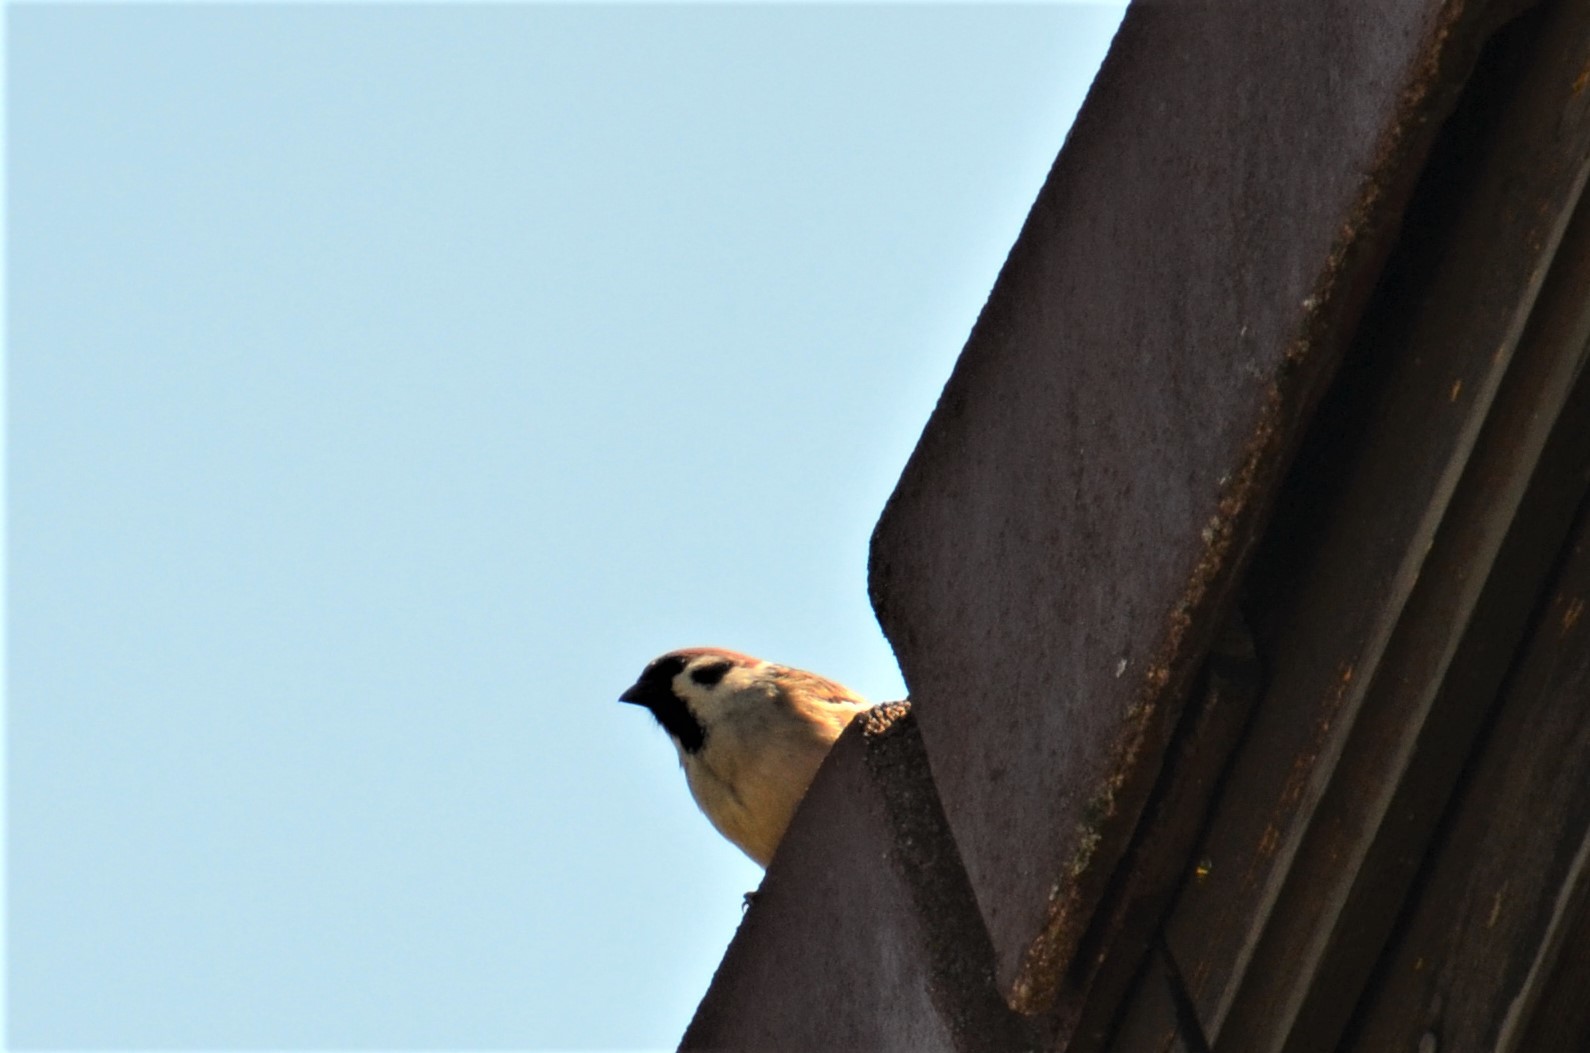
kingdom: Animalia
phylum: Chordata
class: Aves
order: Passeriformes
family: Passeridae
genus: Passer
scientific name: Passer montanus
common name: Eurasian tree sparrow
